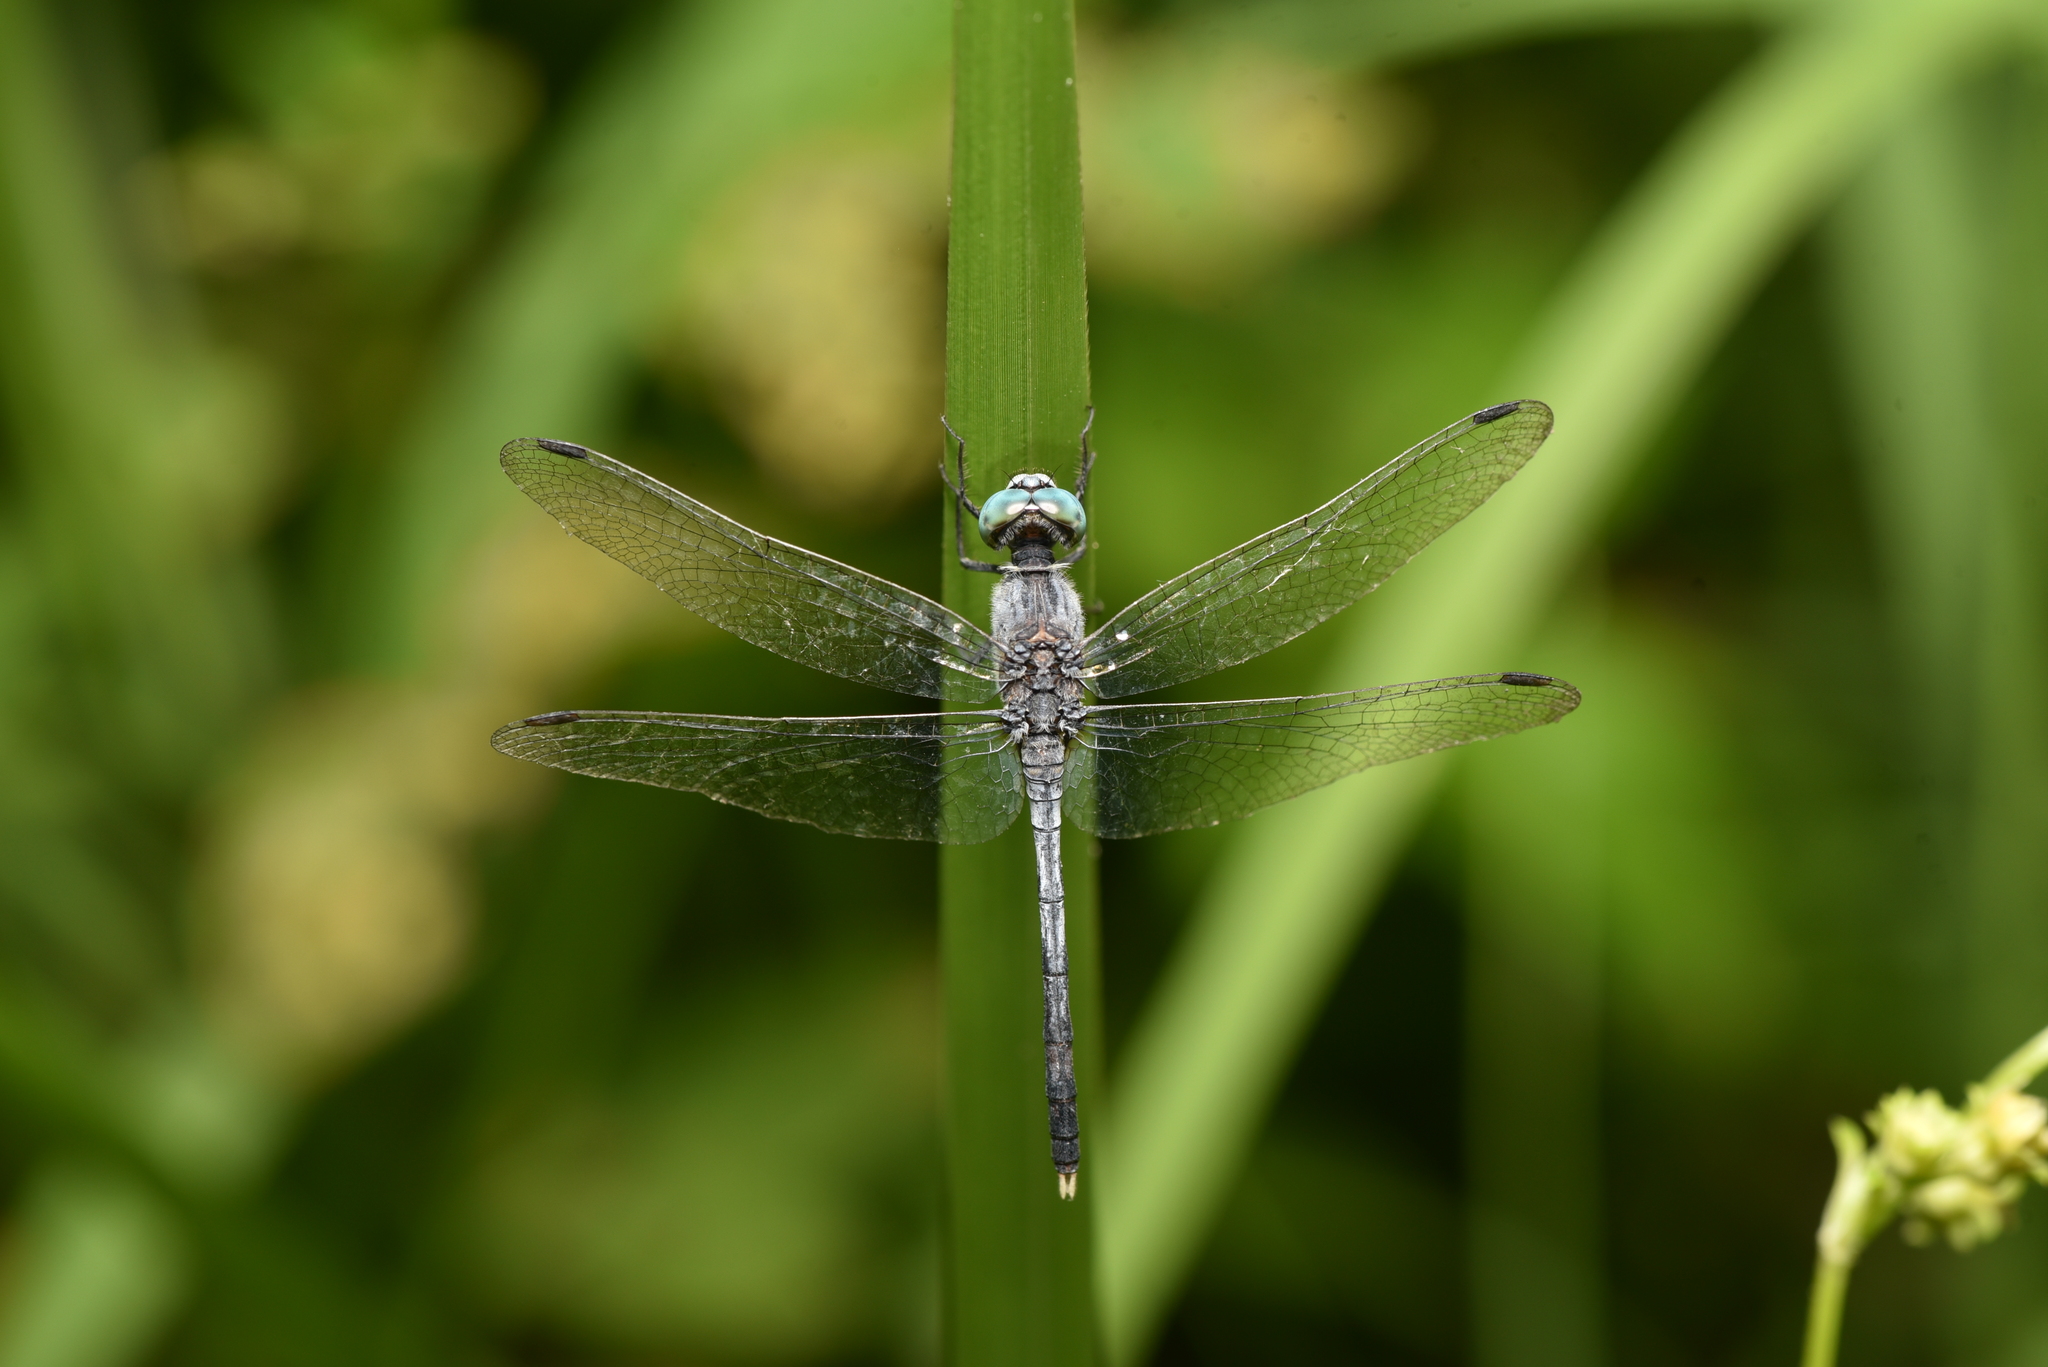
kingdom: Animalia
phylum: Arthropoda
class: Insecta
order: Odonata
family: Libellulidae
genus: Diplacodes
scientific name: Diplacodes trivialis
